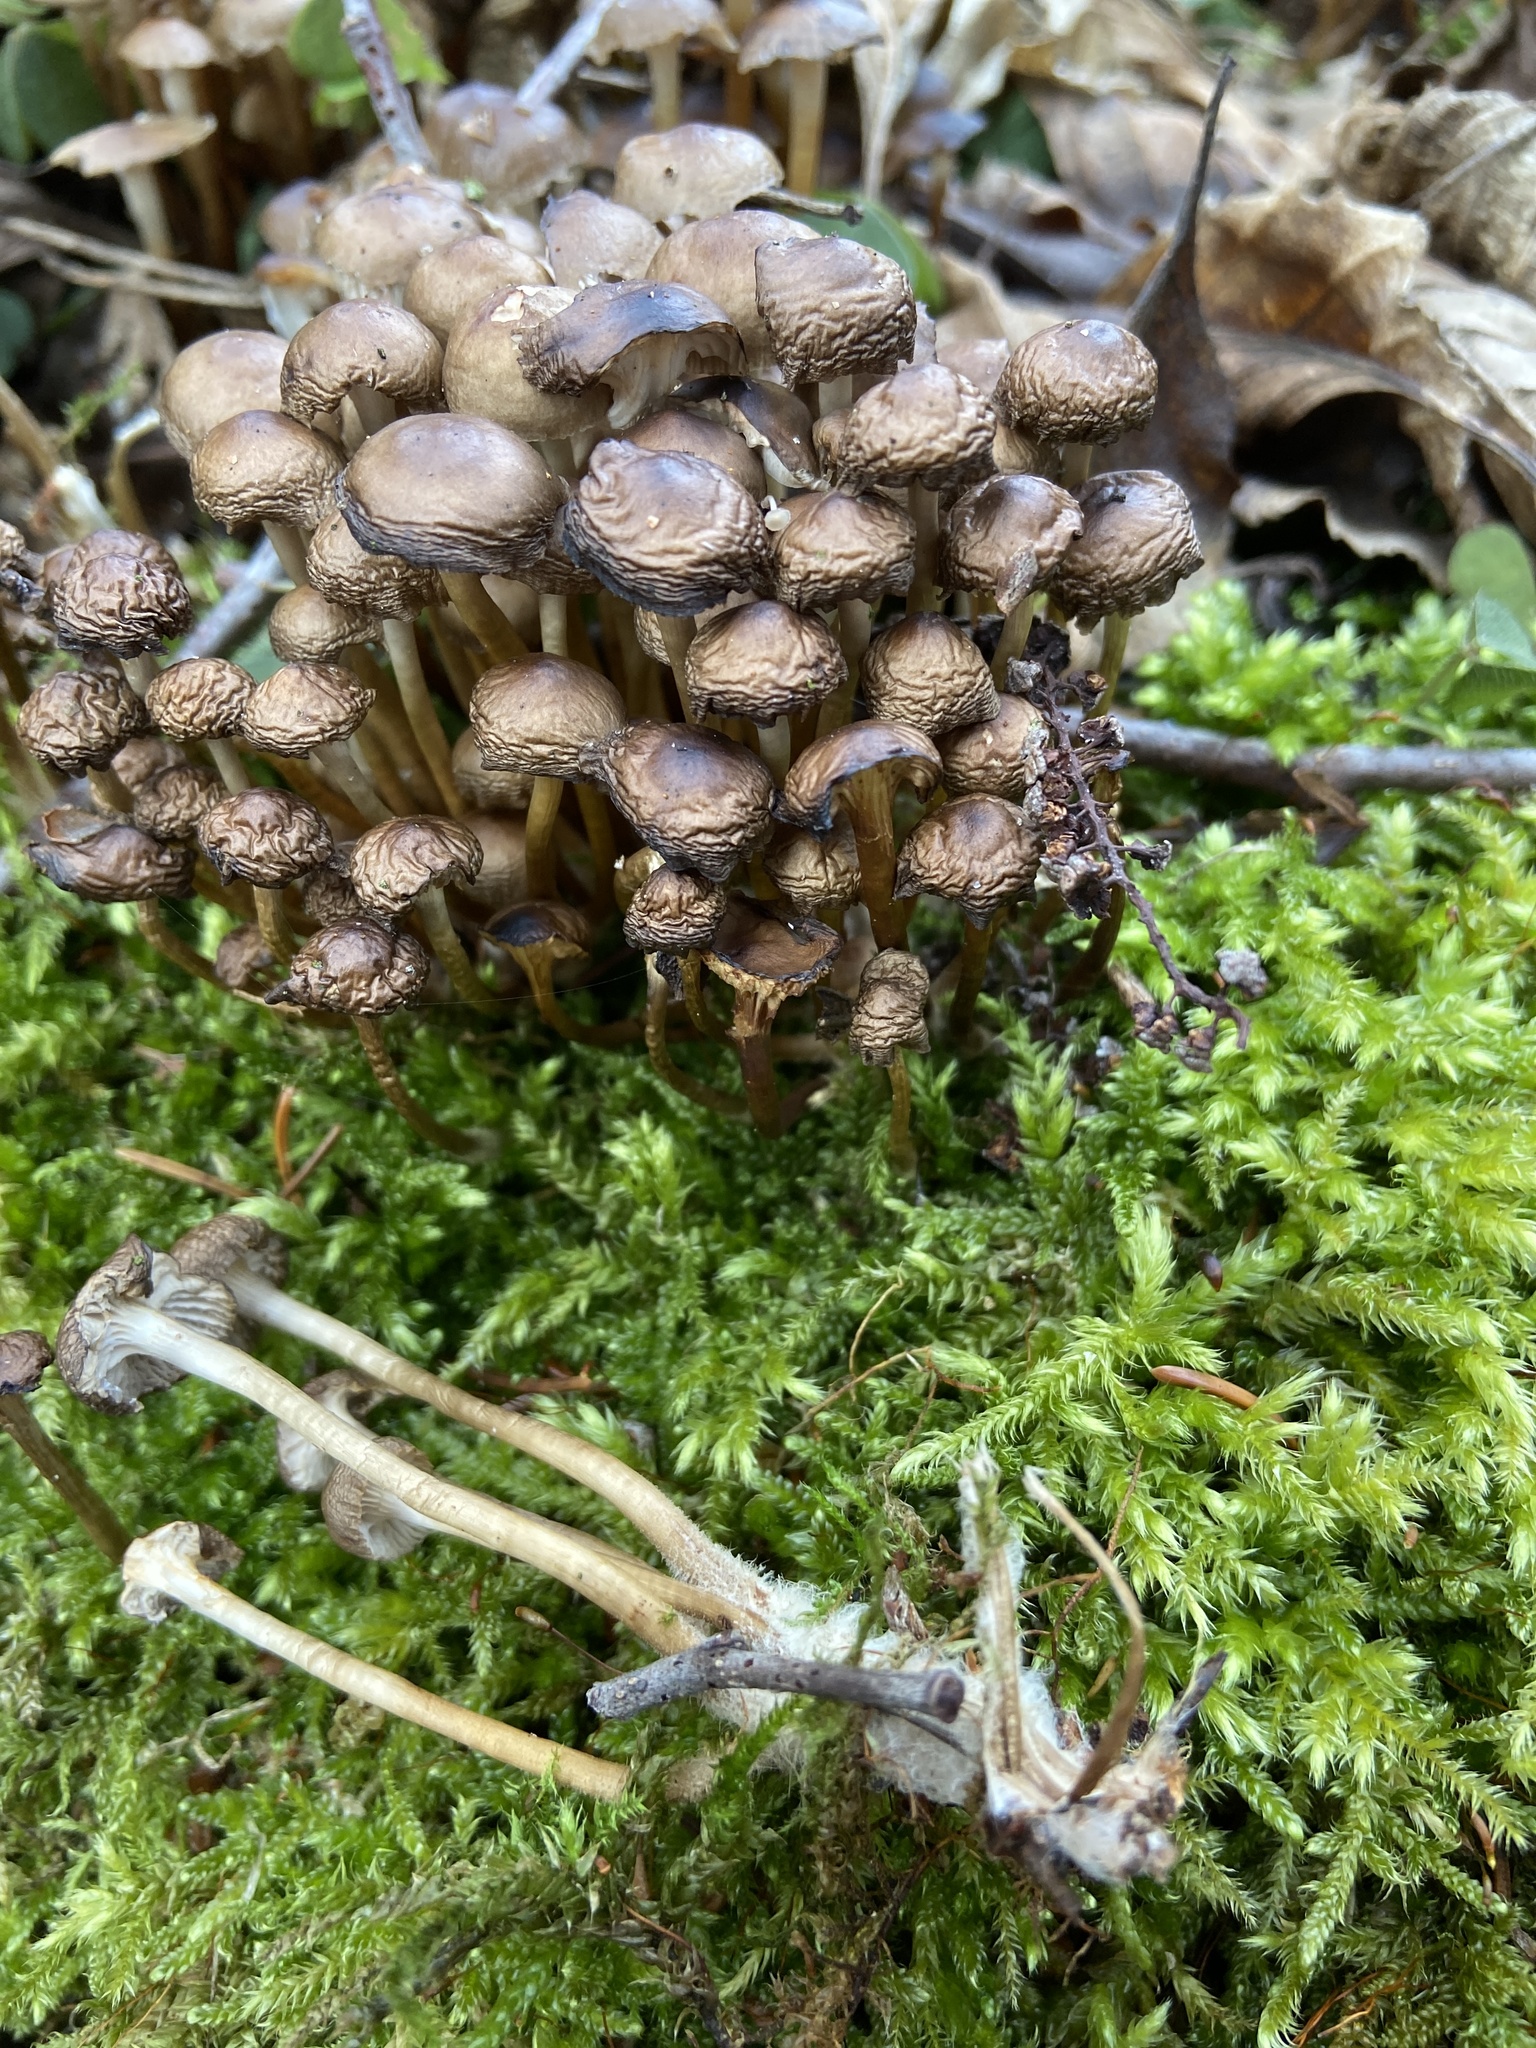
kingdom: Fungi
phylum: Basidiomycota
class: Agaricomycetes
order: Agaricales
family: Mycenaceae
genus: Mycena
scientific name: Mycena tintinnabulum
